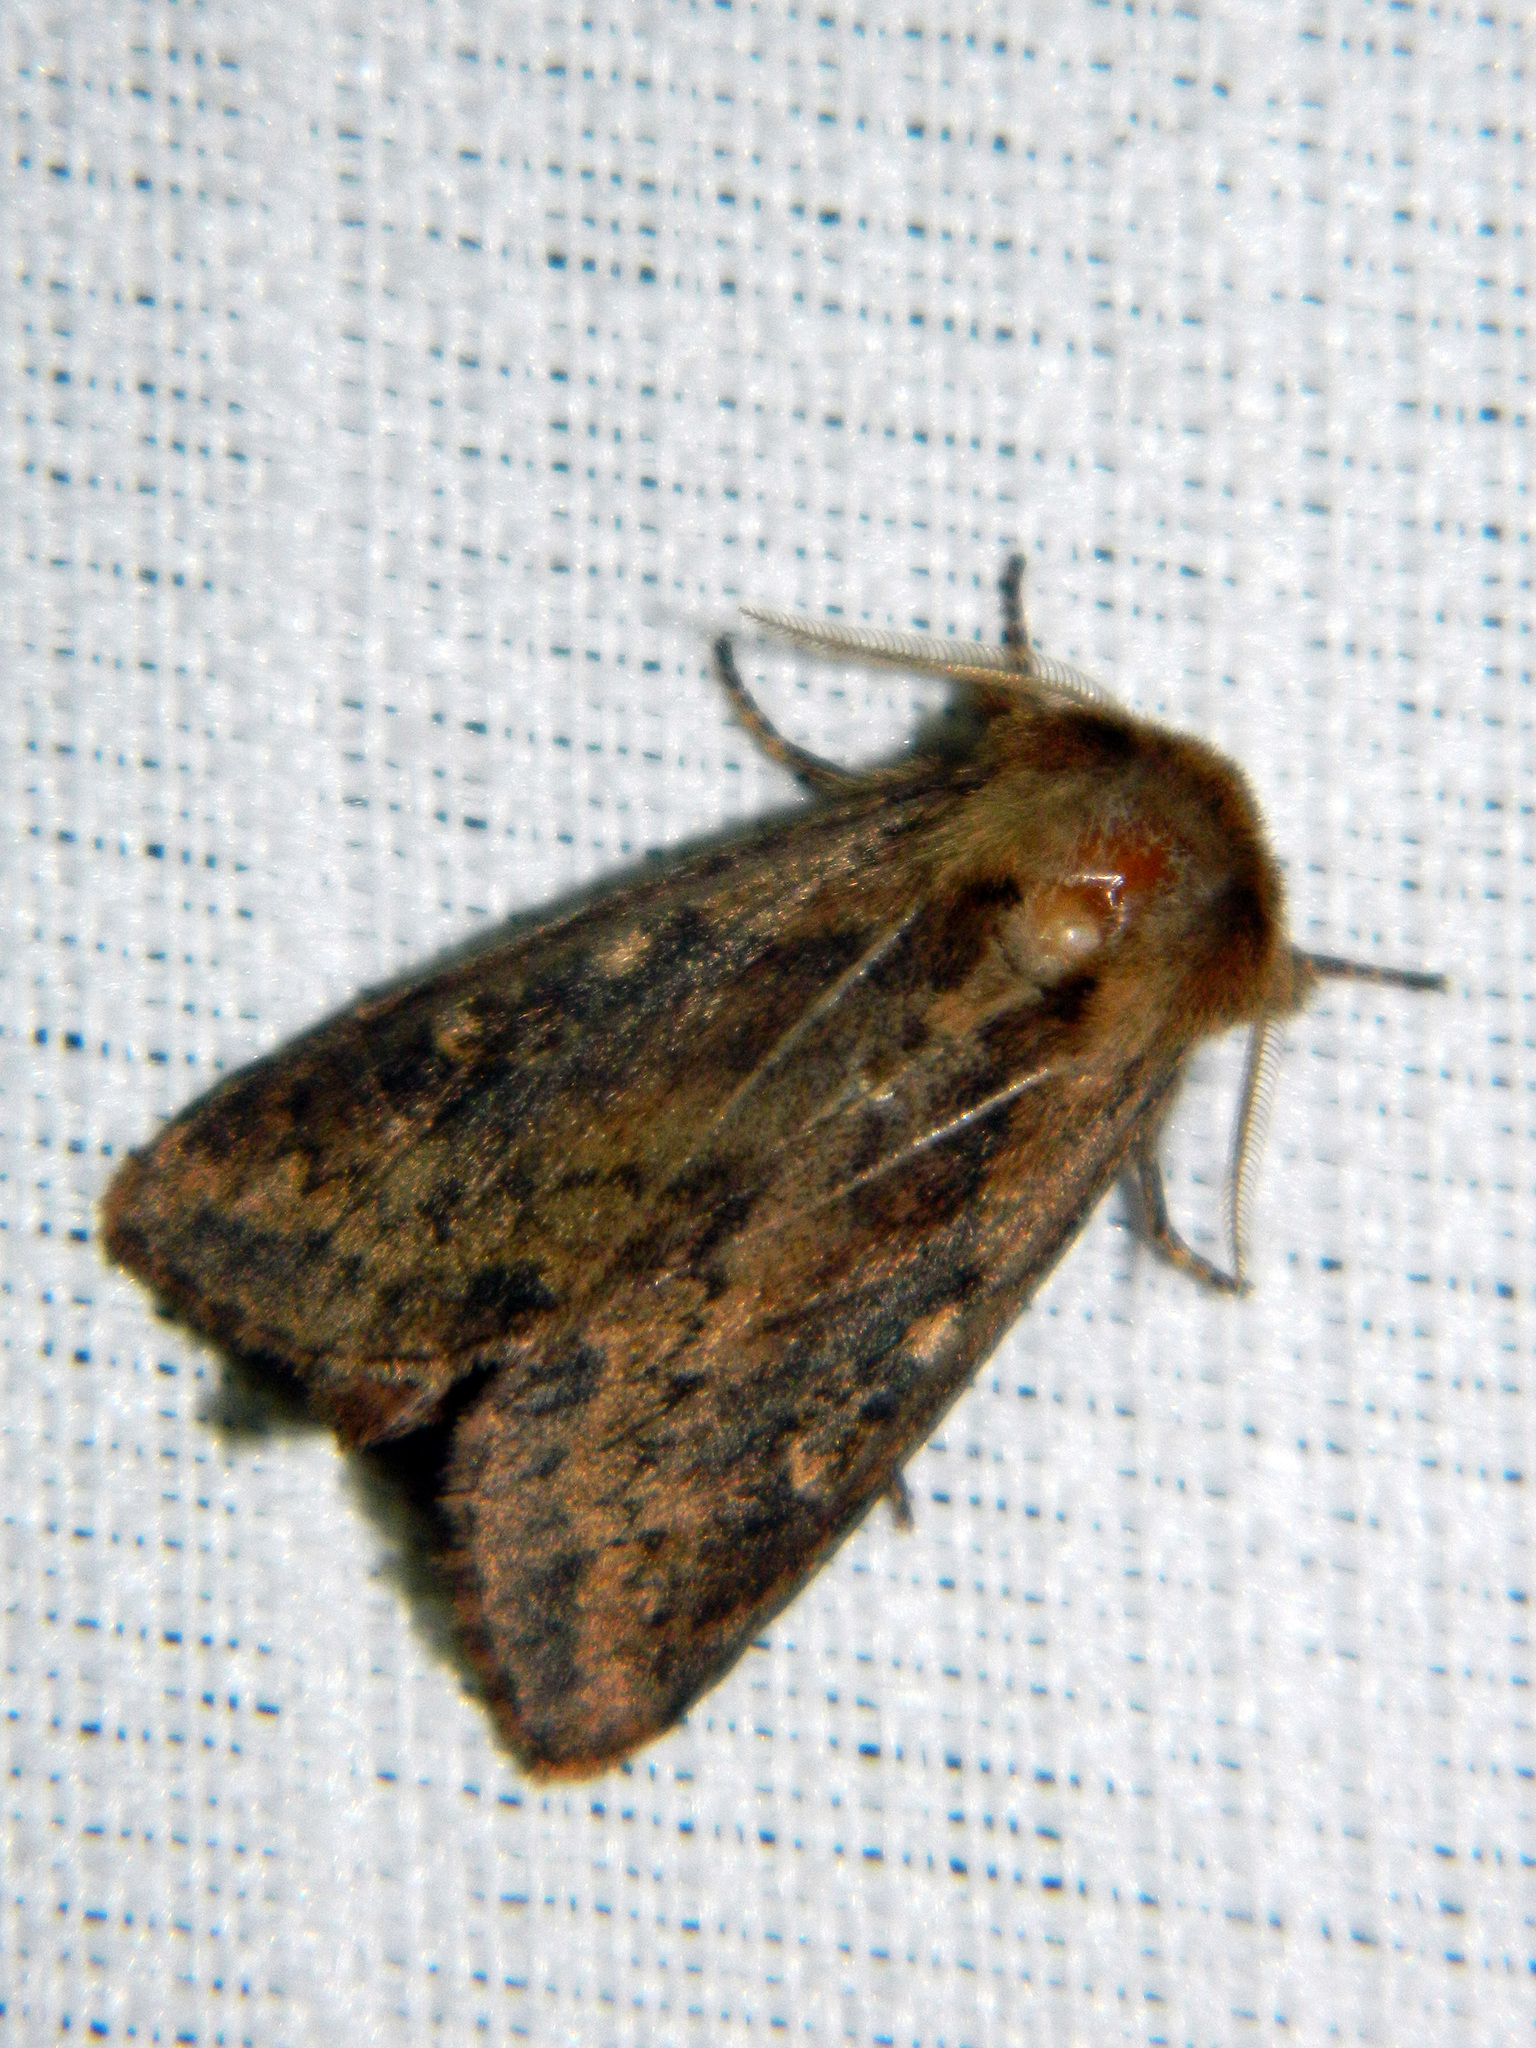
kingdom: Animalia
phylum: Arthropoda
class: Insecta
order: Lepidoptera
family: Noctuidae
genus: Bellura
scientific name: Bellura vulnifica
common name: Black-tailed diver moth
